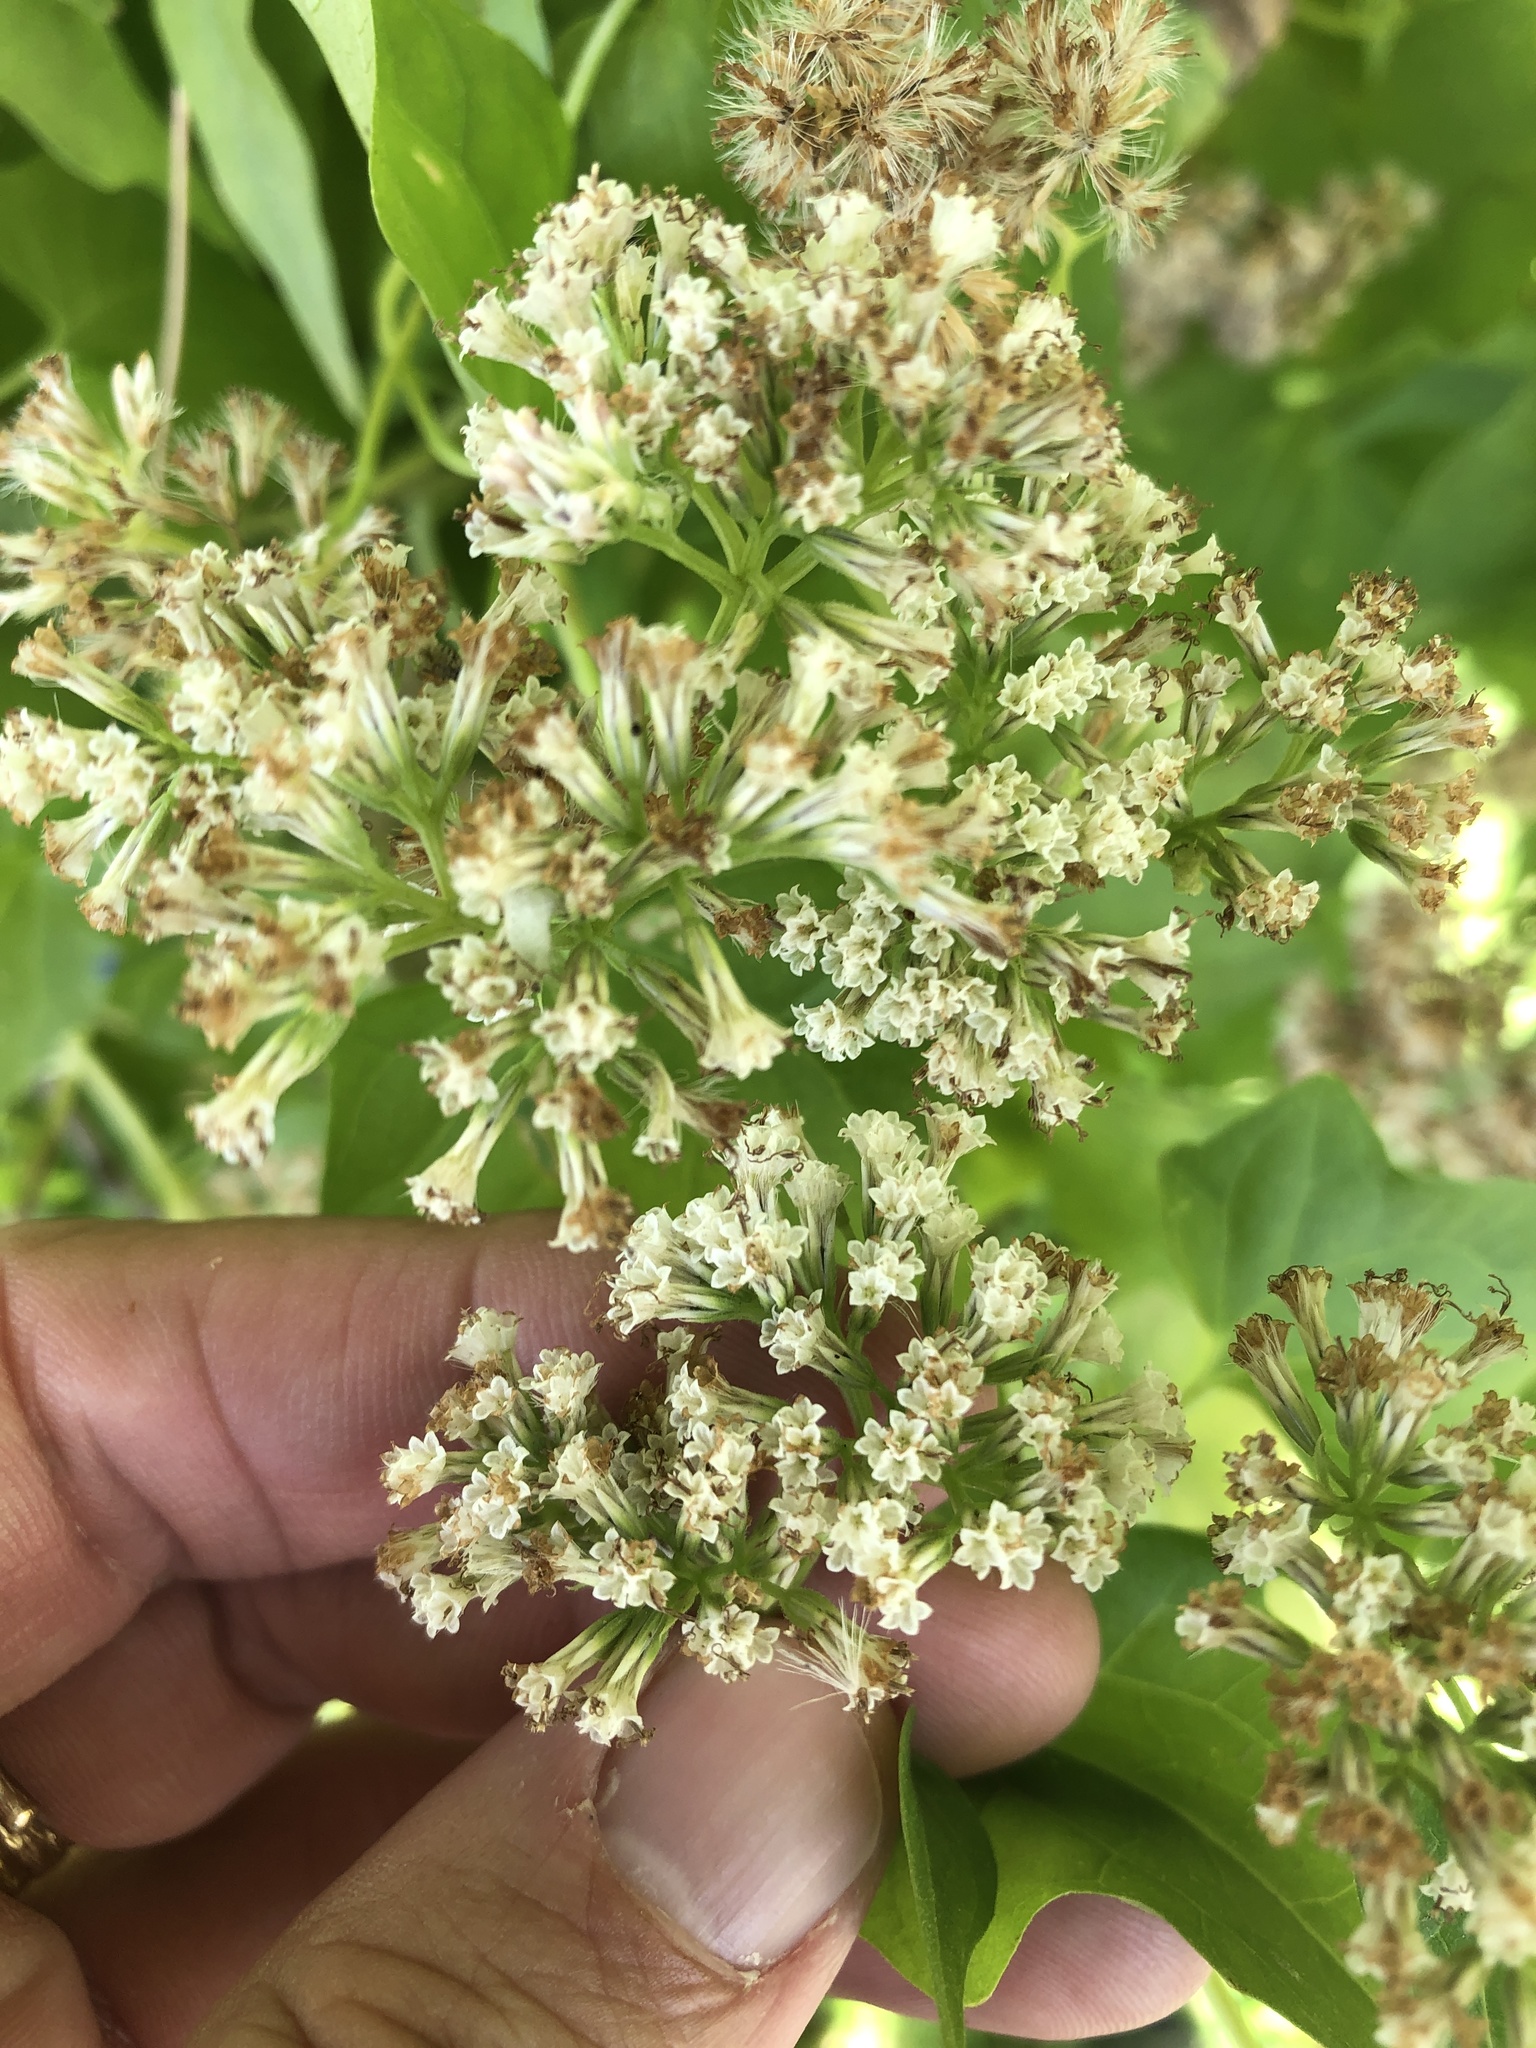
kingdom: Plantae
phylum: Tracheophyta
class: Magnoliopsida
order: Asterales
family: Asteraceae
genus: Mikania
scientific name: Mikania scandens
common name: Climbing hempvine
